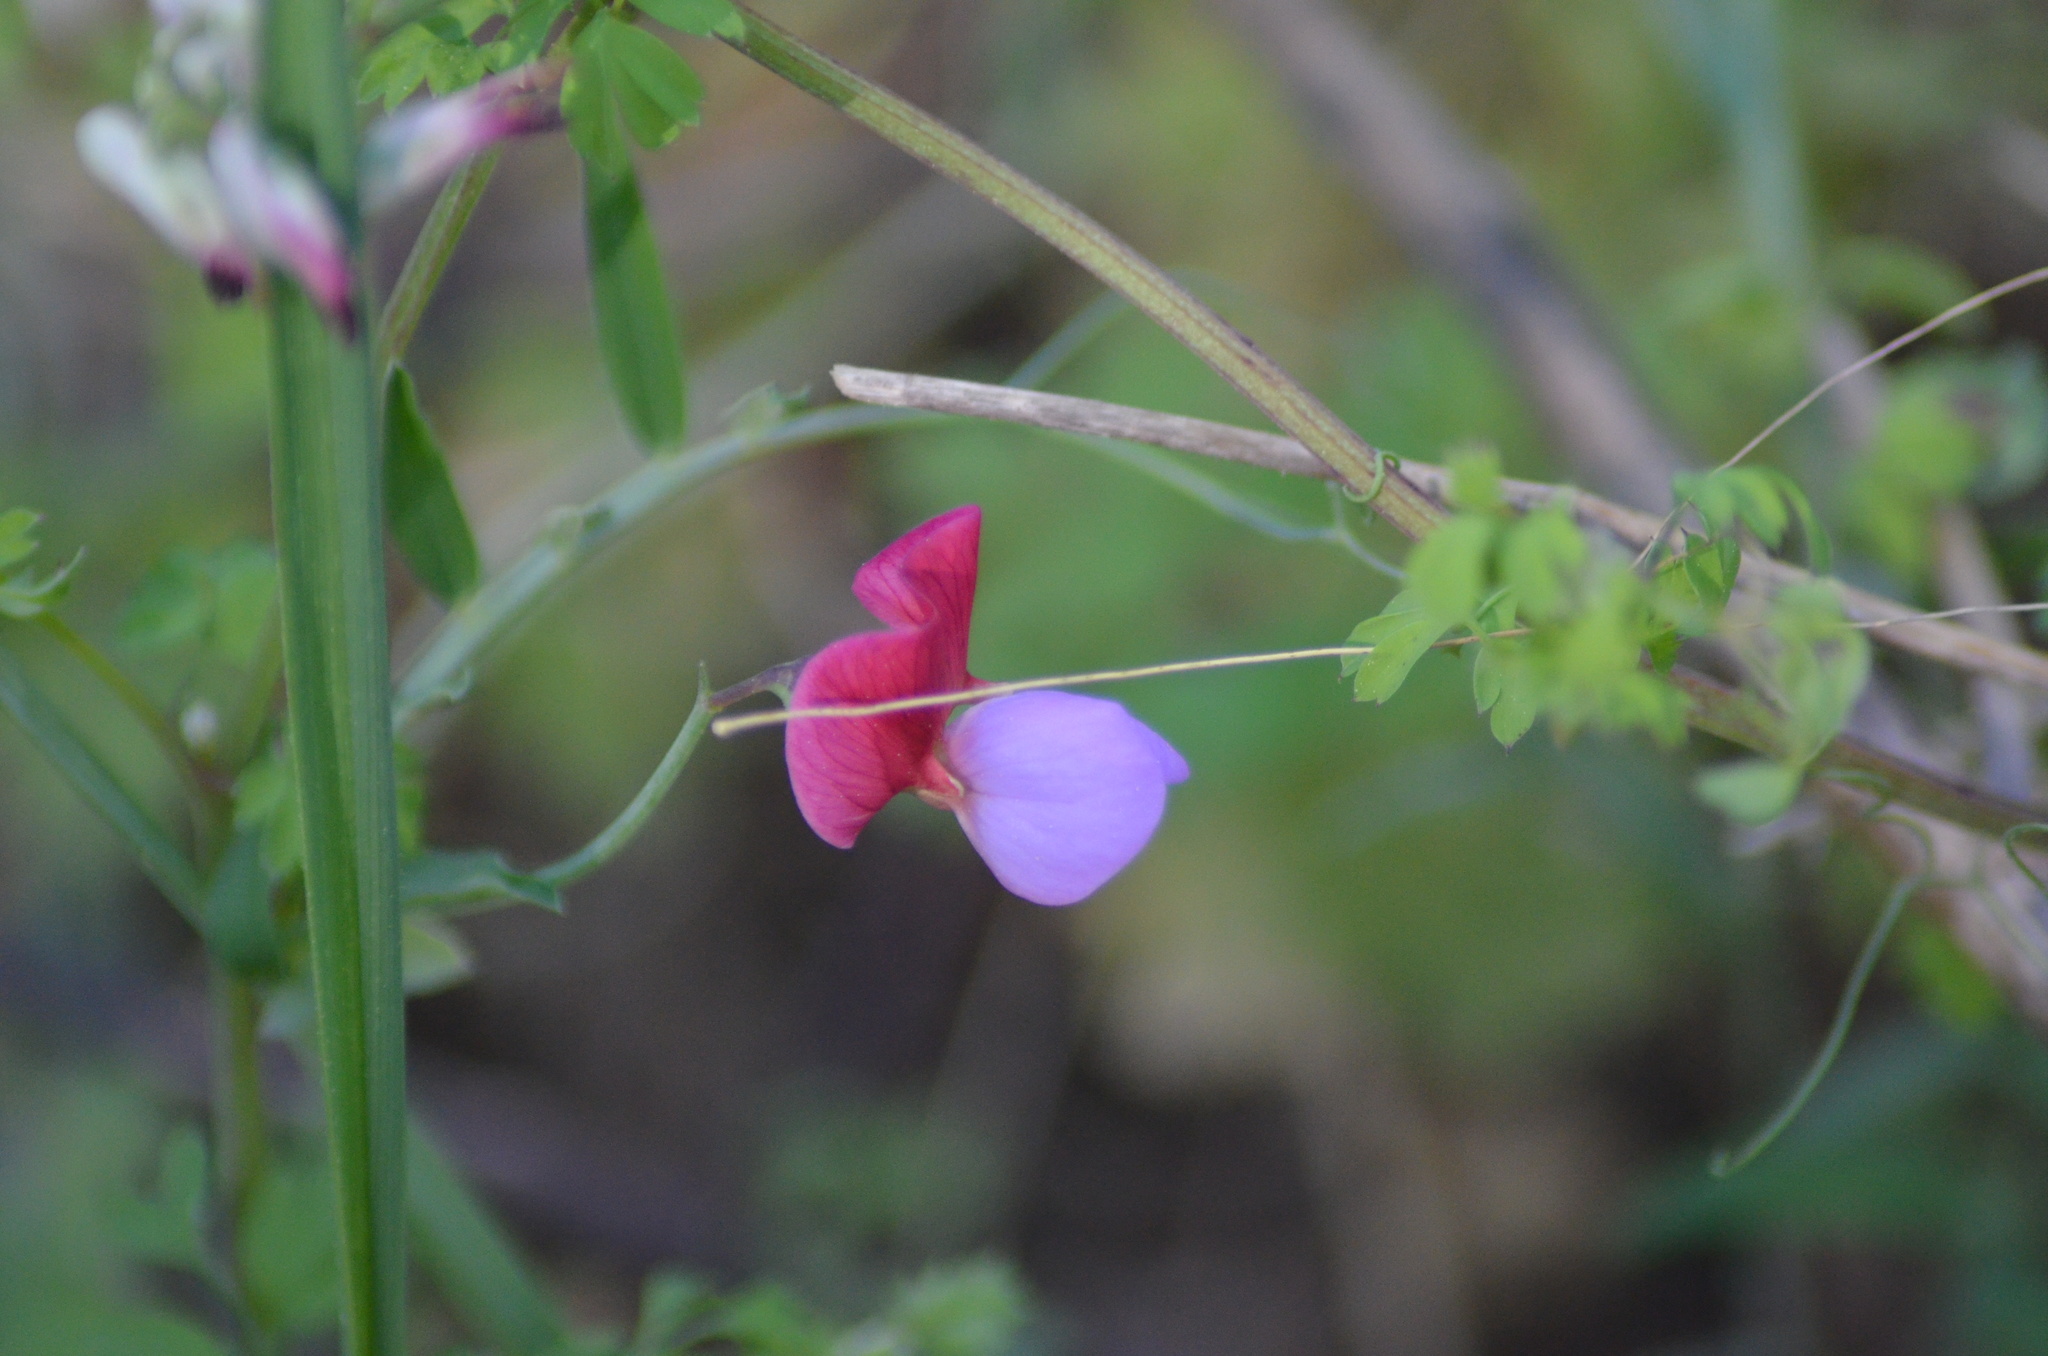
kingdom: Plantae
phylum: Tracheophyta
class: Magnoliopsida
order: Fabales
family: Fabaceae
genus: Lathyrus
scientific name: Lathyrus clymenum
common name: Spanish vetchling
